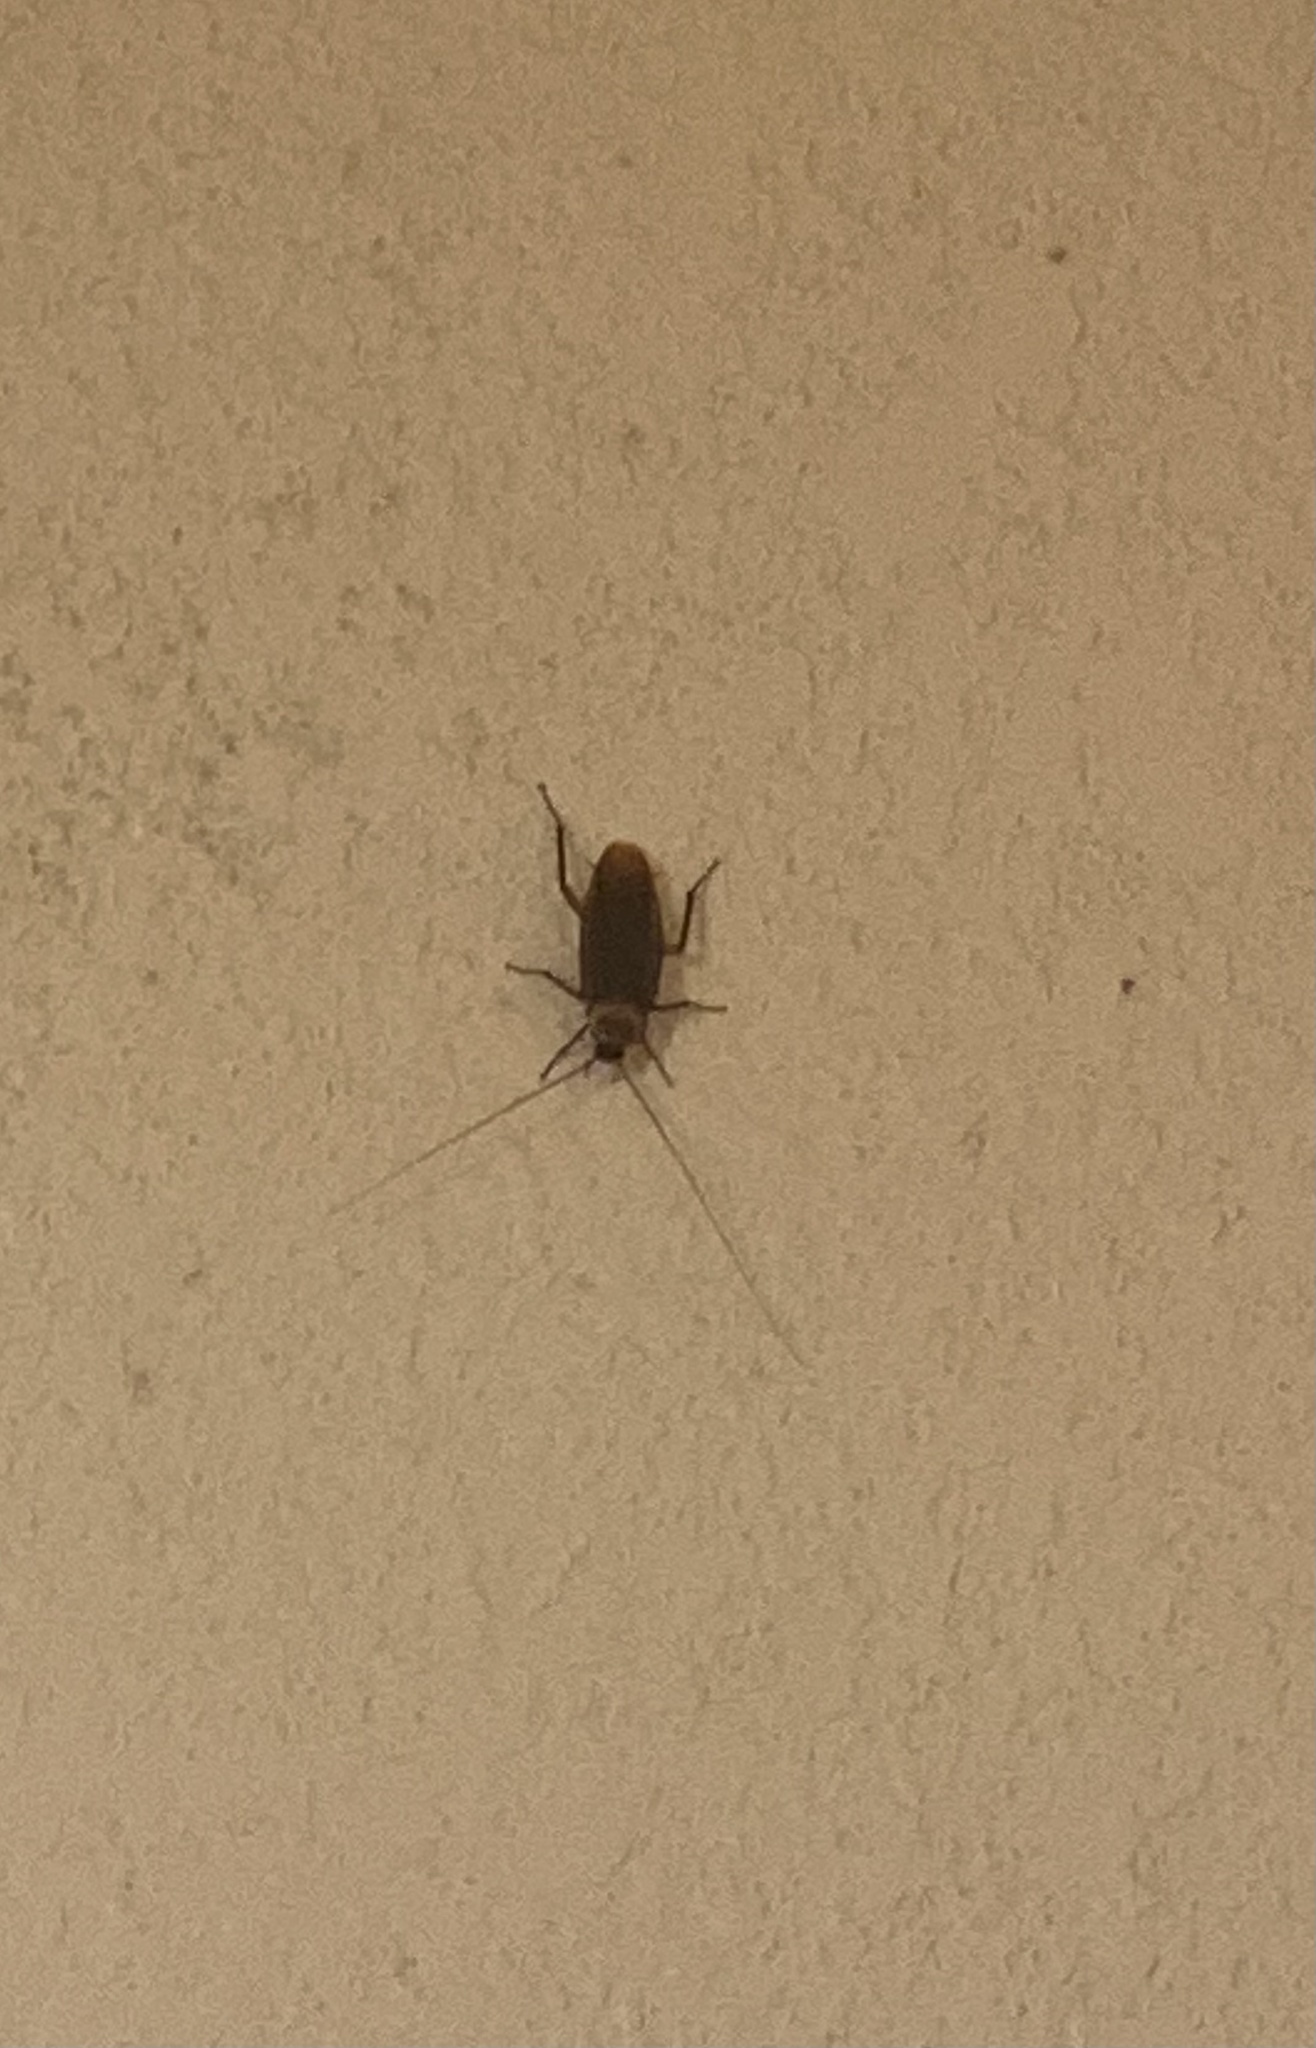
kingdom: Animalia
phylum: Arthropoda
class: Insecta
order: Blattodea
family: Blattidae
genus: Periplaneta
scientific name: Periplaneta americana
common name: American cockroach
